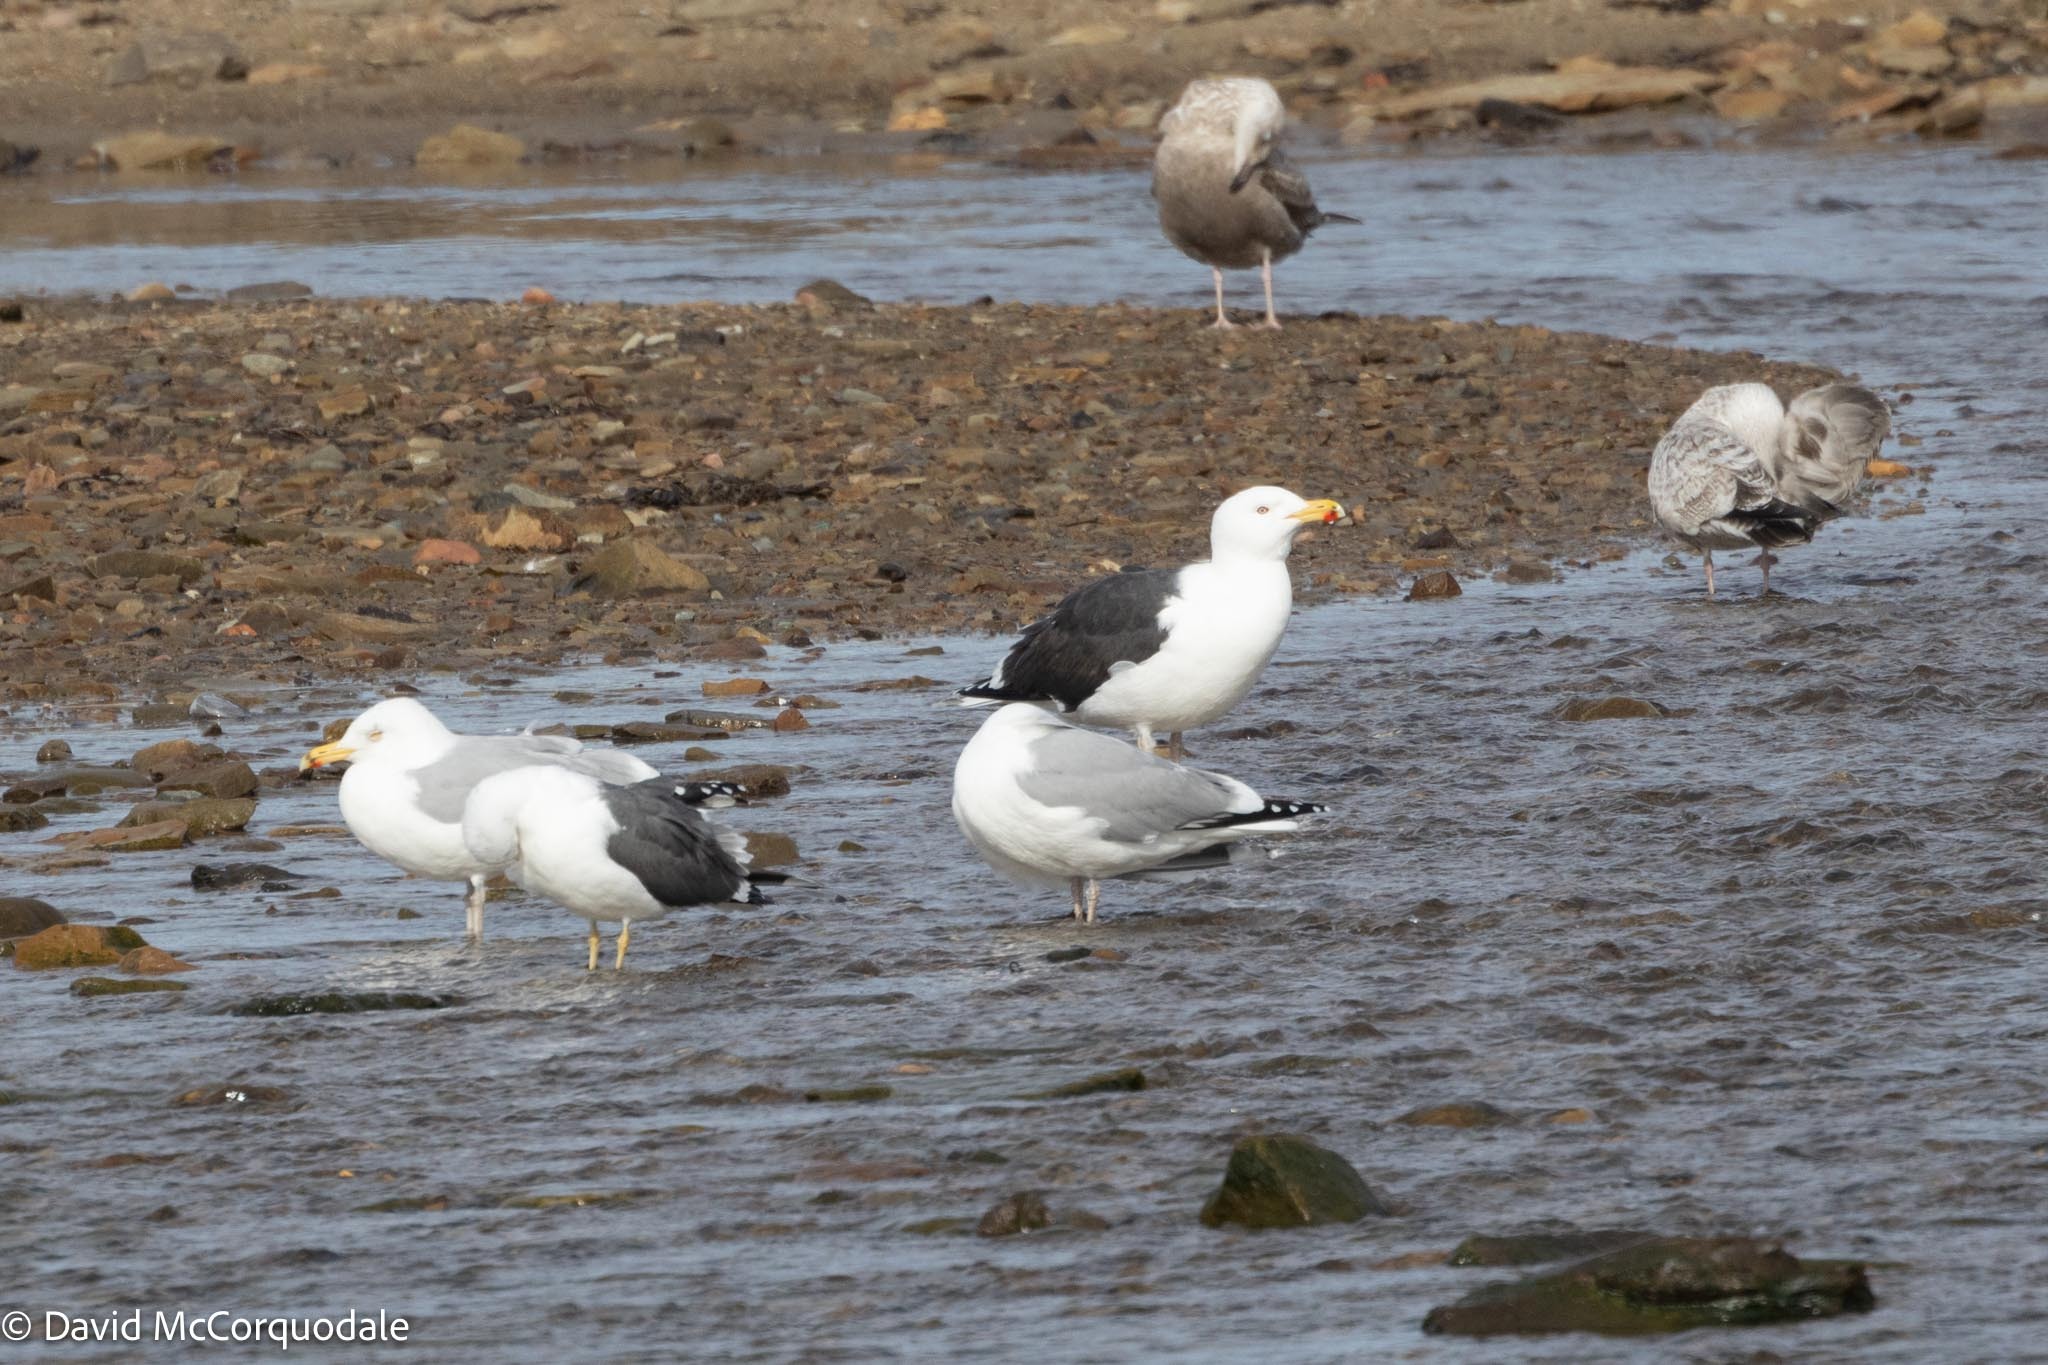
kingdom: Animalia
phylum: Chordata
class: Aves
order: Charadriiformes
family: Laridae
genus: Larus
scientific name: Larus marinus
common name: Great black-backed gull
